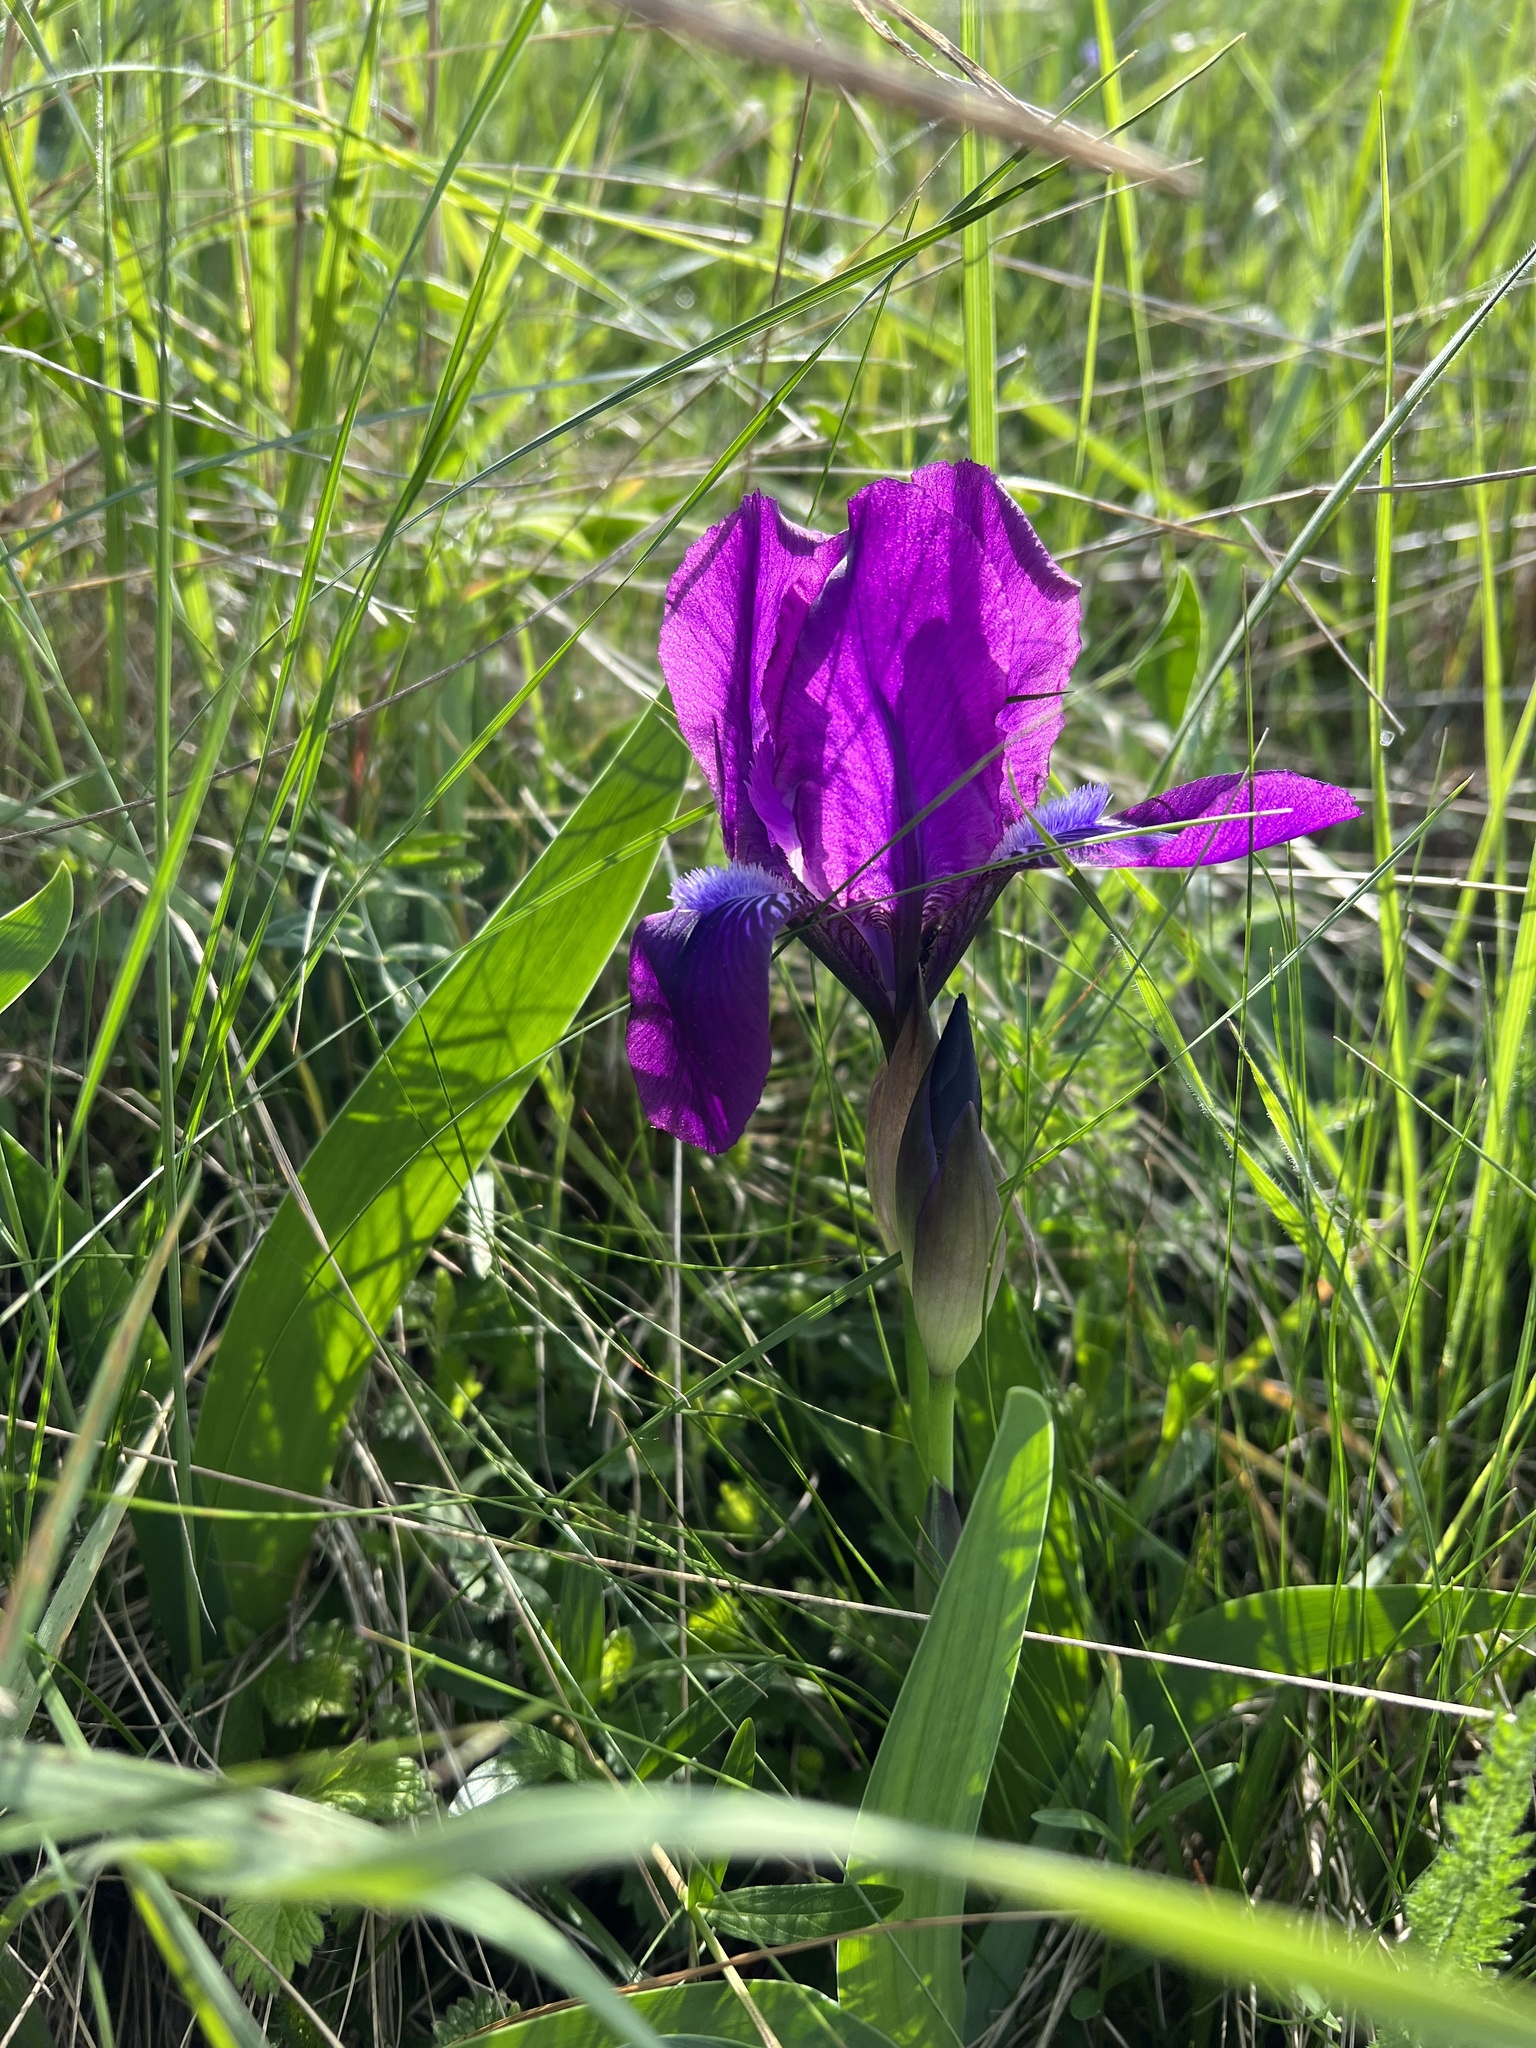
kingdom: Plantae
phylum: Tracheophyta
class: Liliopsida
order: Asparagales
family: Iridaceae
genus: Iris
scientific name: Iris aphylla
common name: Stool iris
